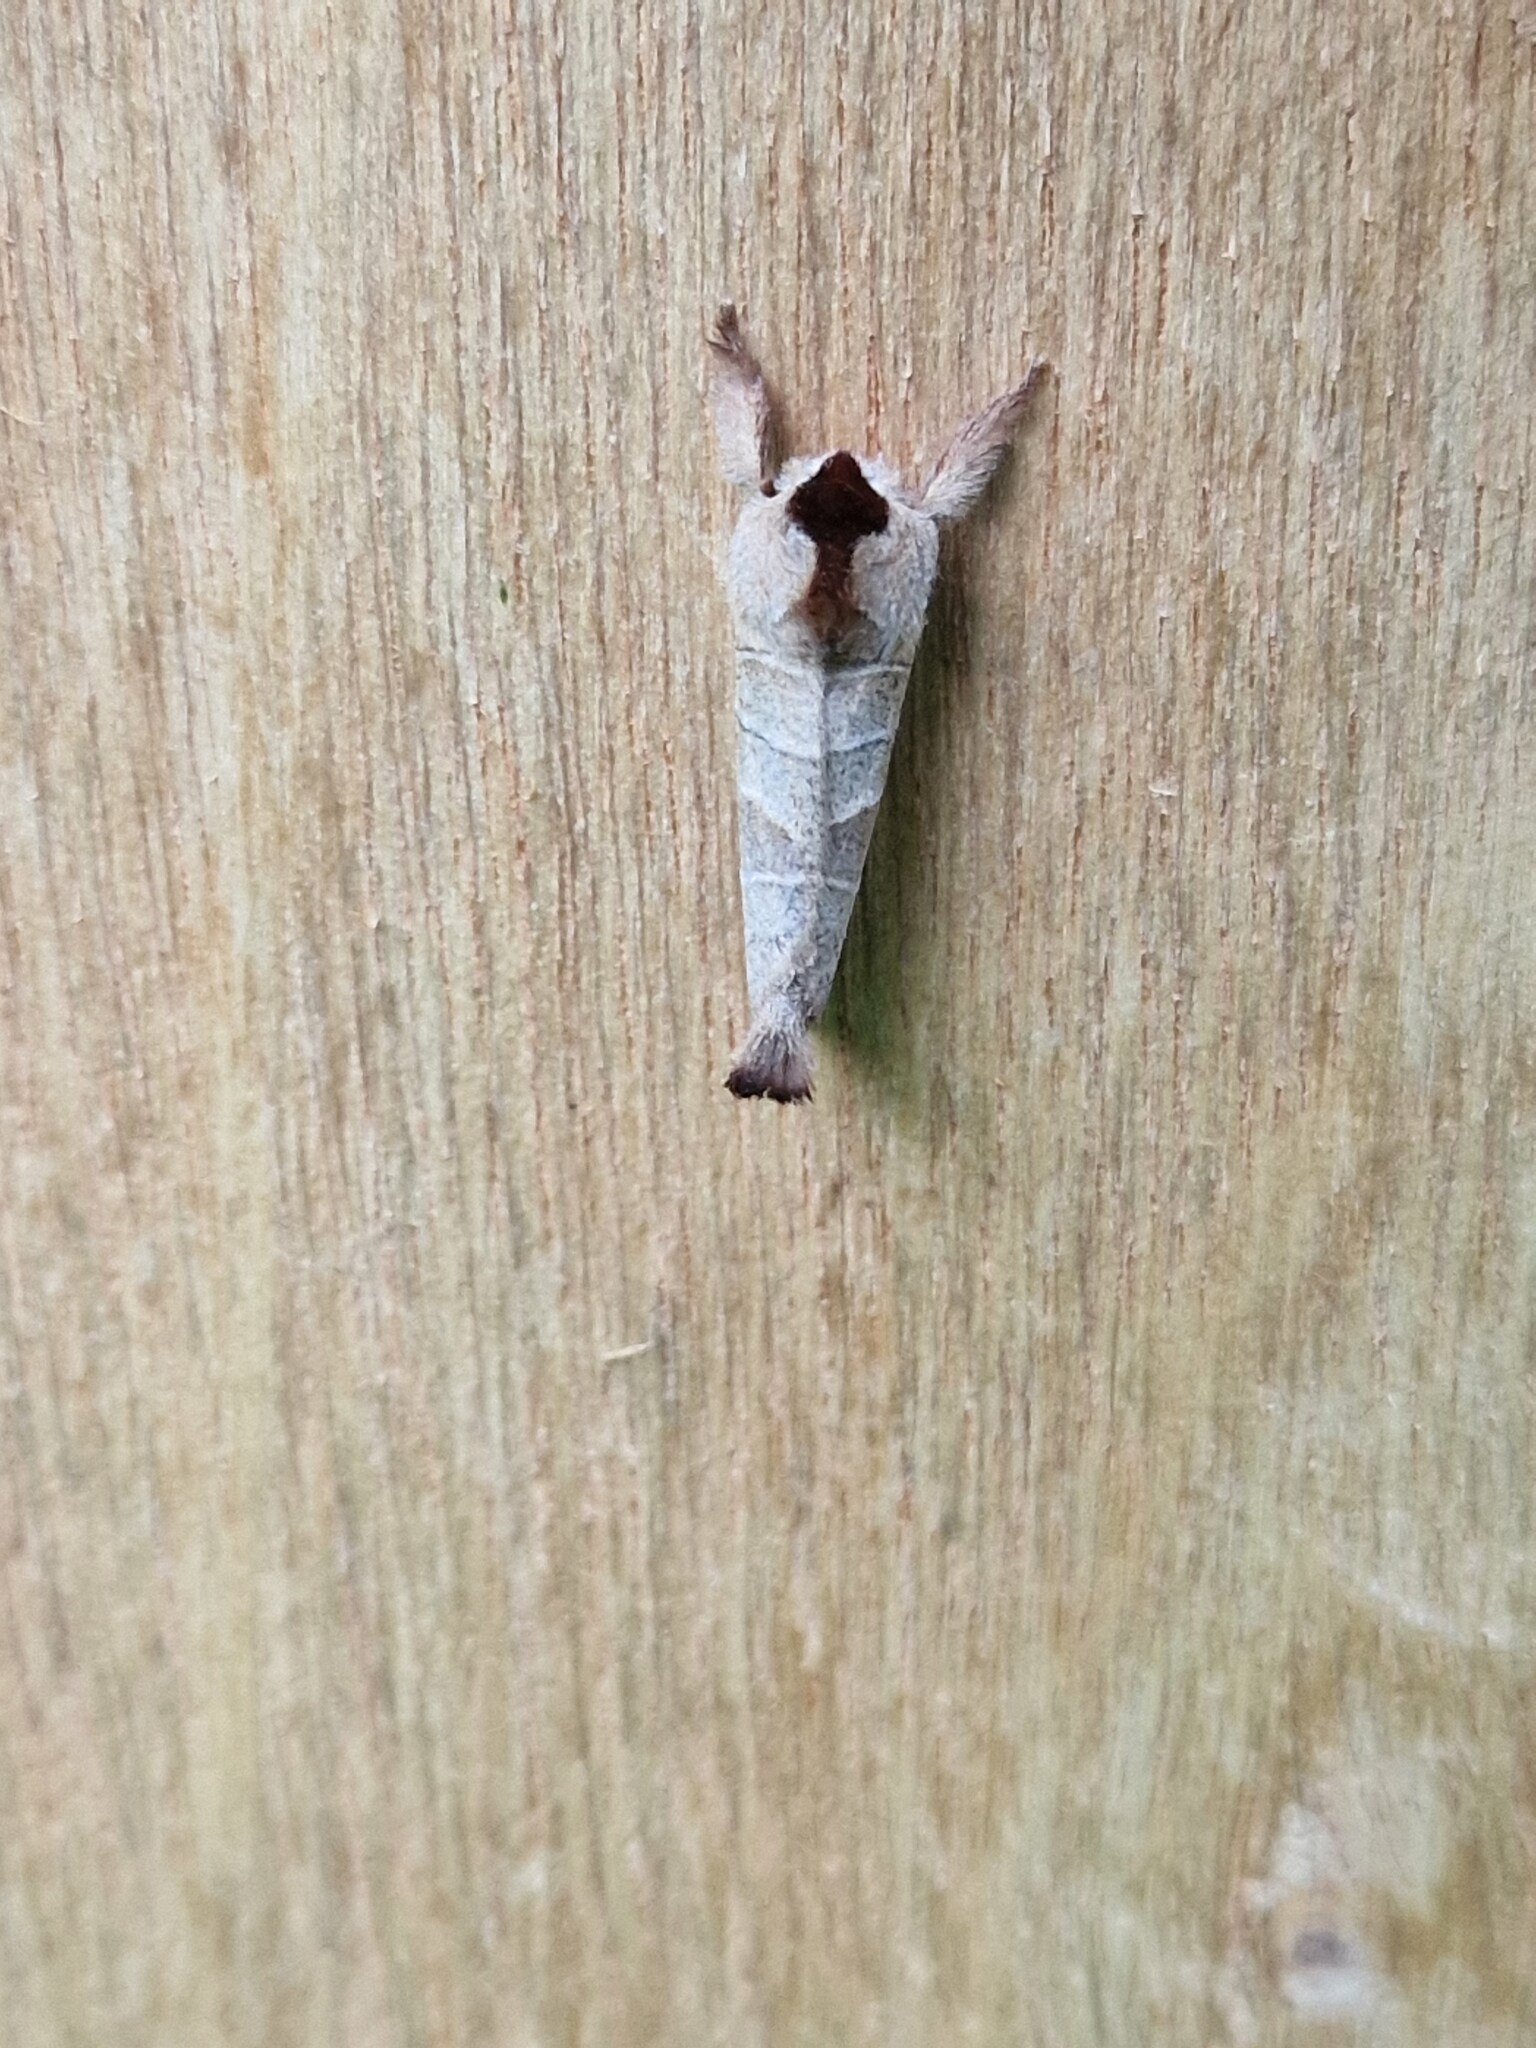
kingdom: Animalia
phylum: Arthropoda
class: Insecta
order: Lepidoptera
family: Notodontidae
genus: Clostera
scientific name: Clostera curtula
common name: Chocolate-tip
